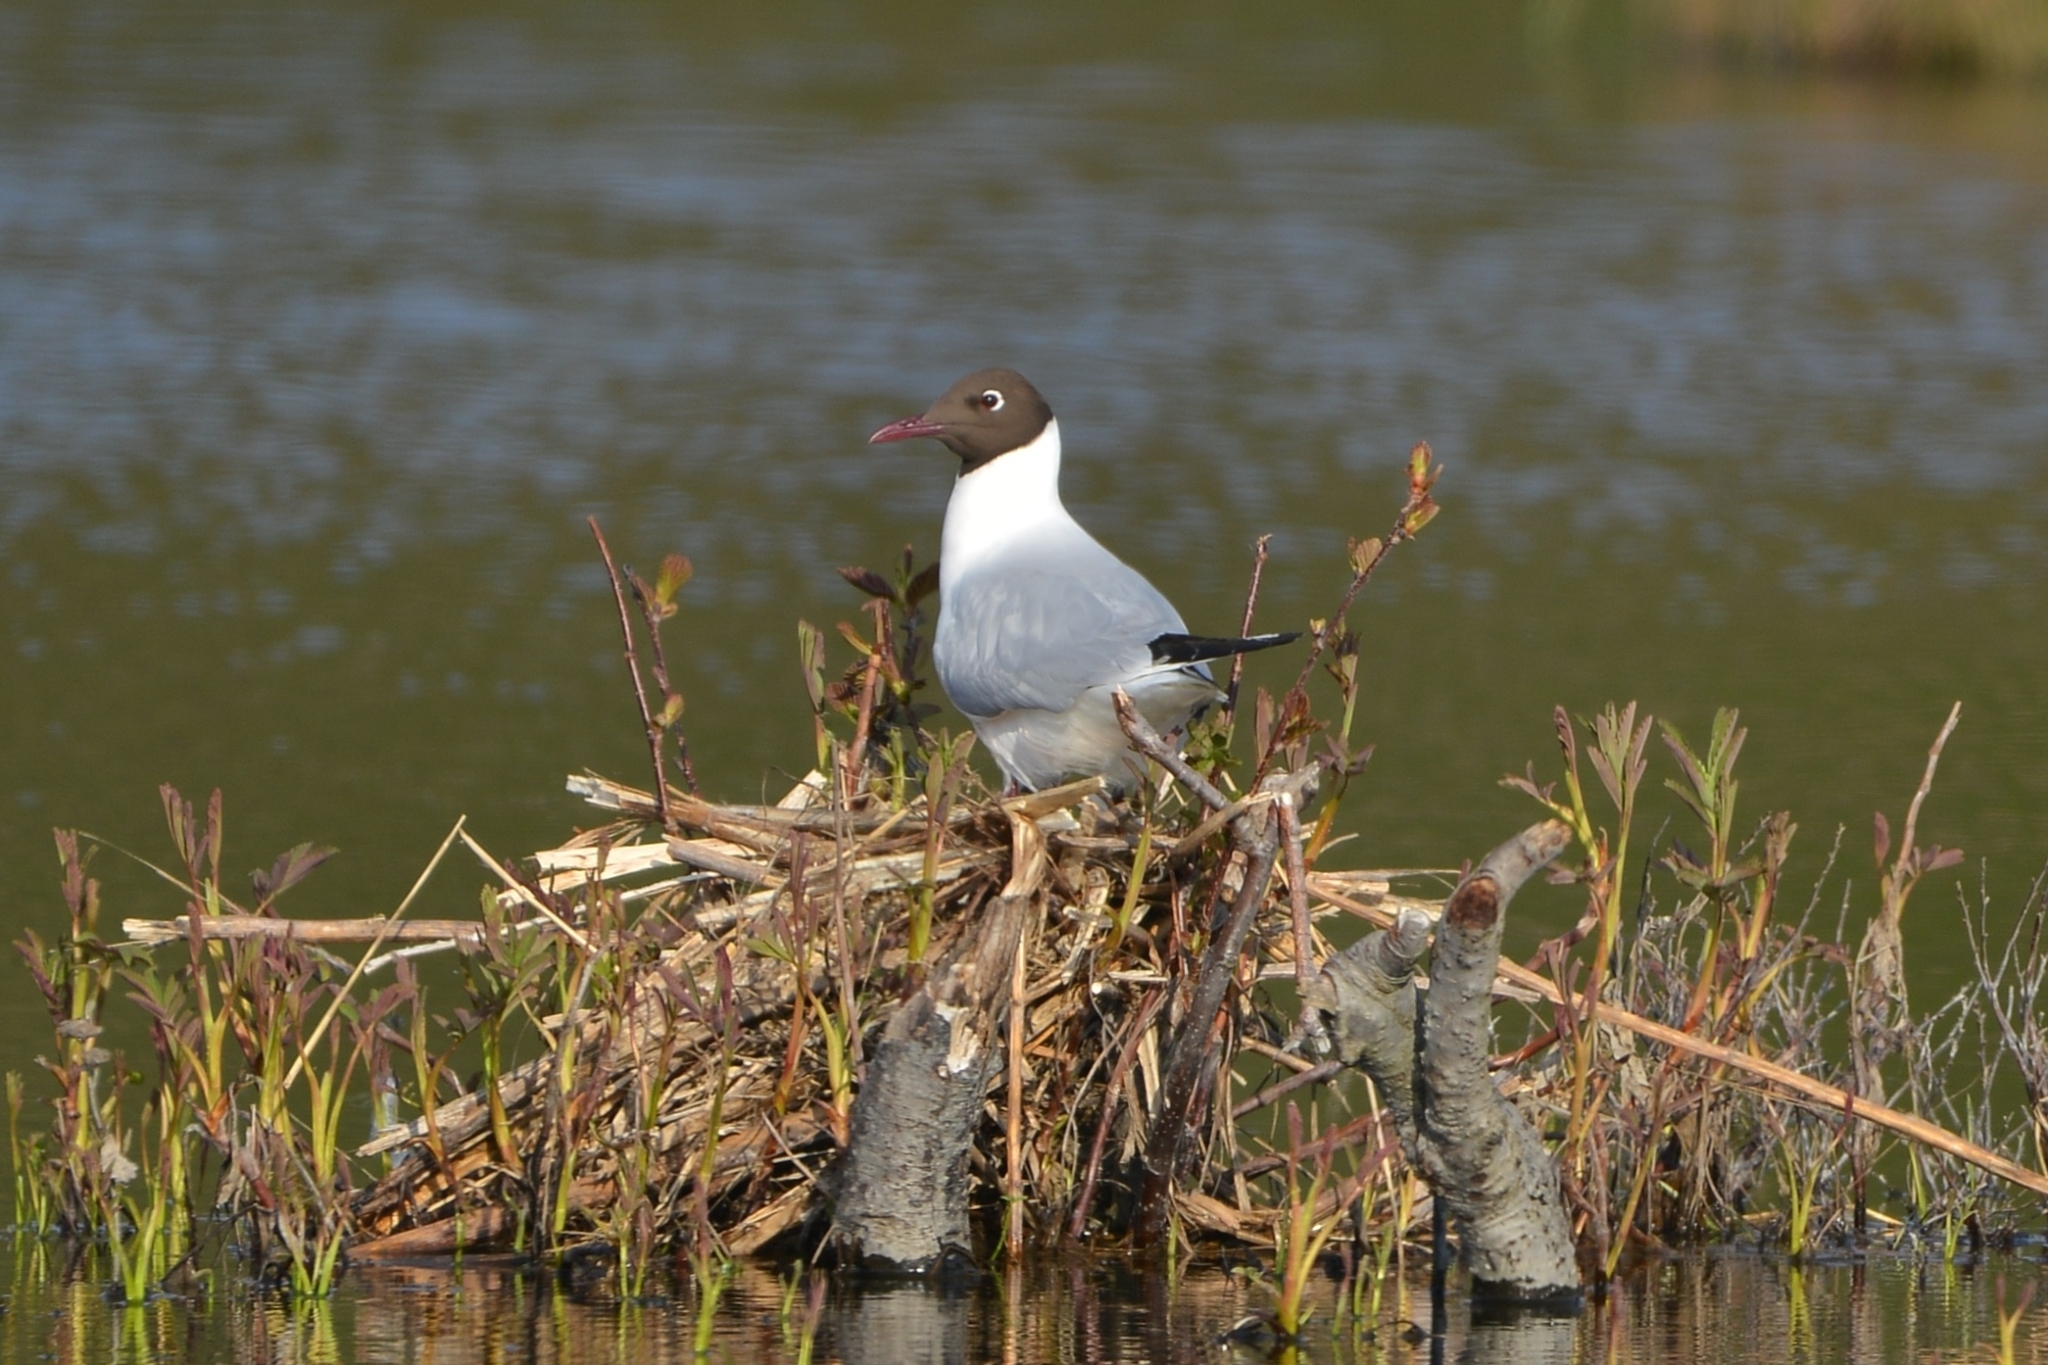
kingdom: Animalia
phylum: Chordata
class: Aves
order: Charadriiformes
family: Laridae
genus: Chroicocephalus
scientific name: Chroicocephalus ridibundus
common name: Black-headed gull
